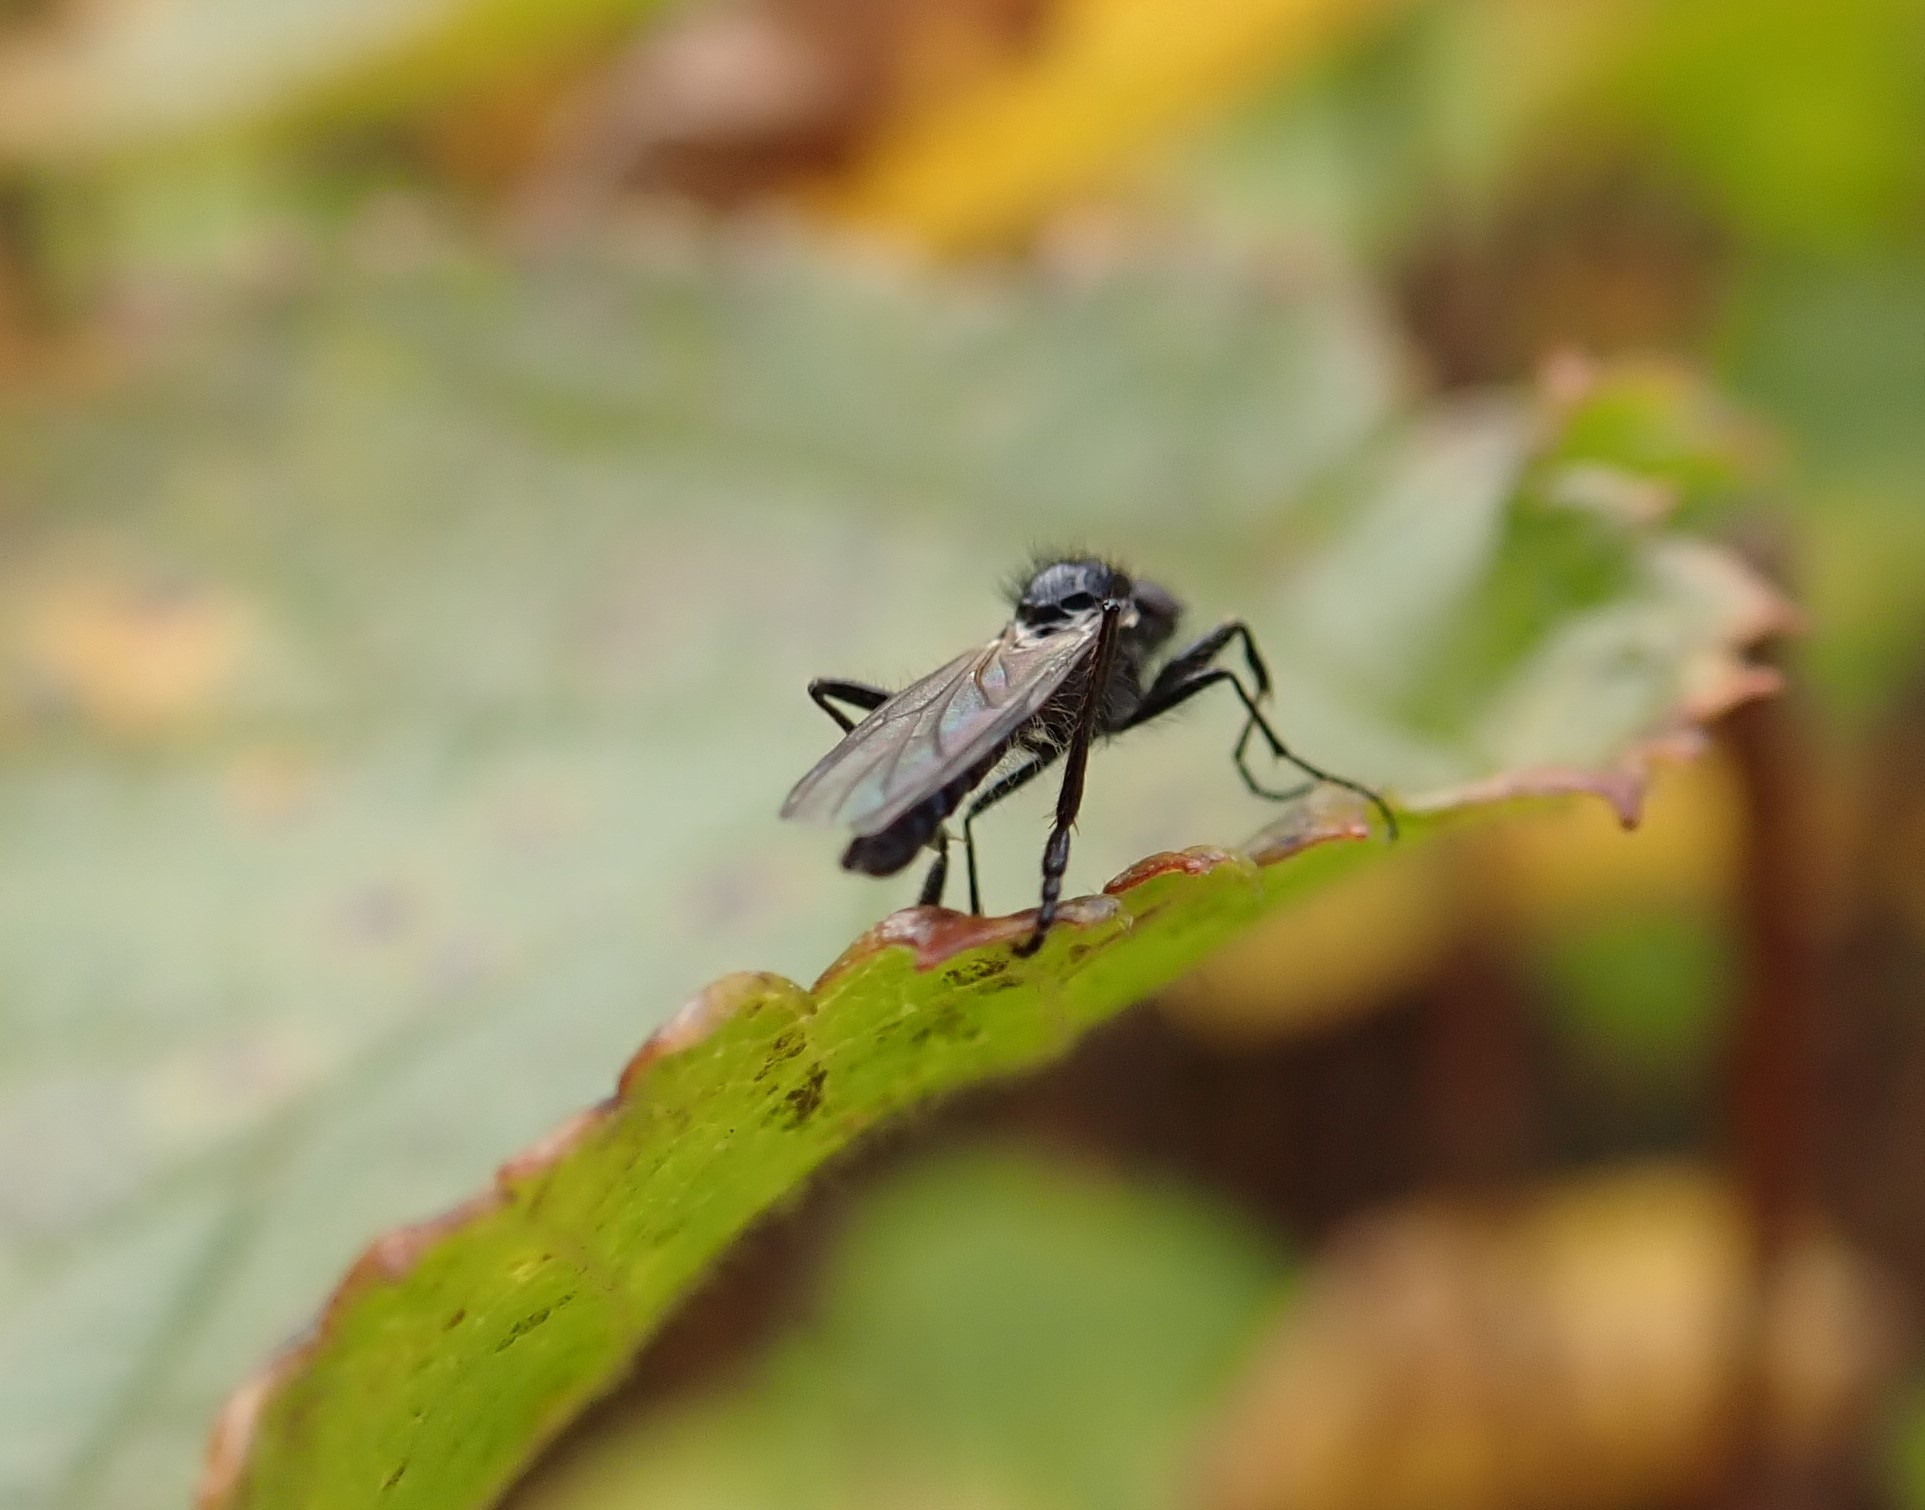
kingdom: Animalia
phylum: Arthropoda
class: Insecta
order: Diptera
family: Bibionidae
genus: Bibio
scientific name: Bibio slossonae
